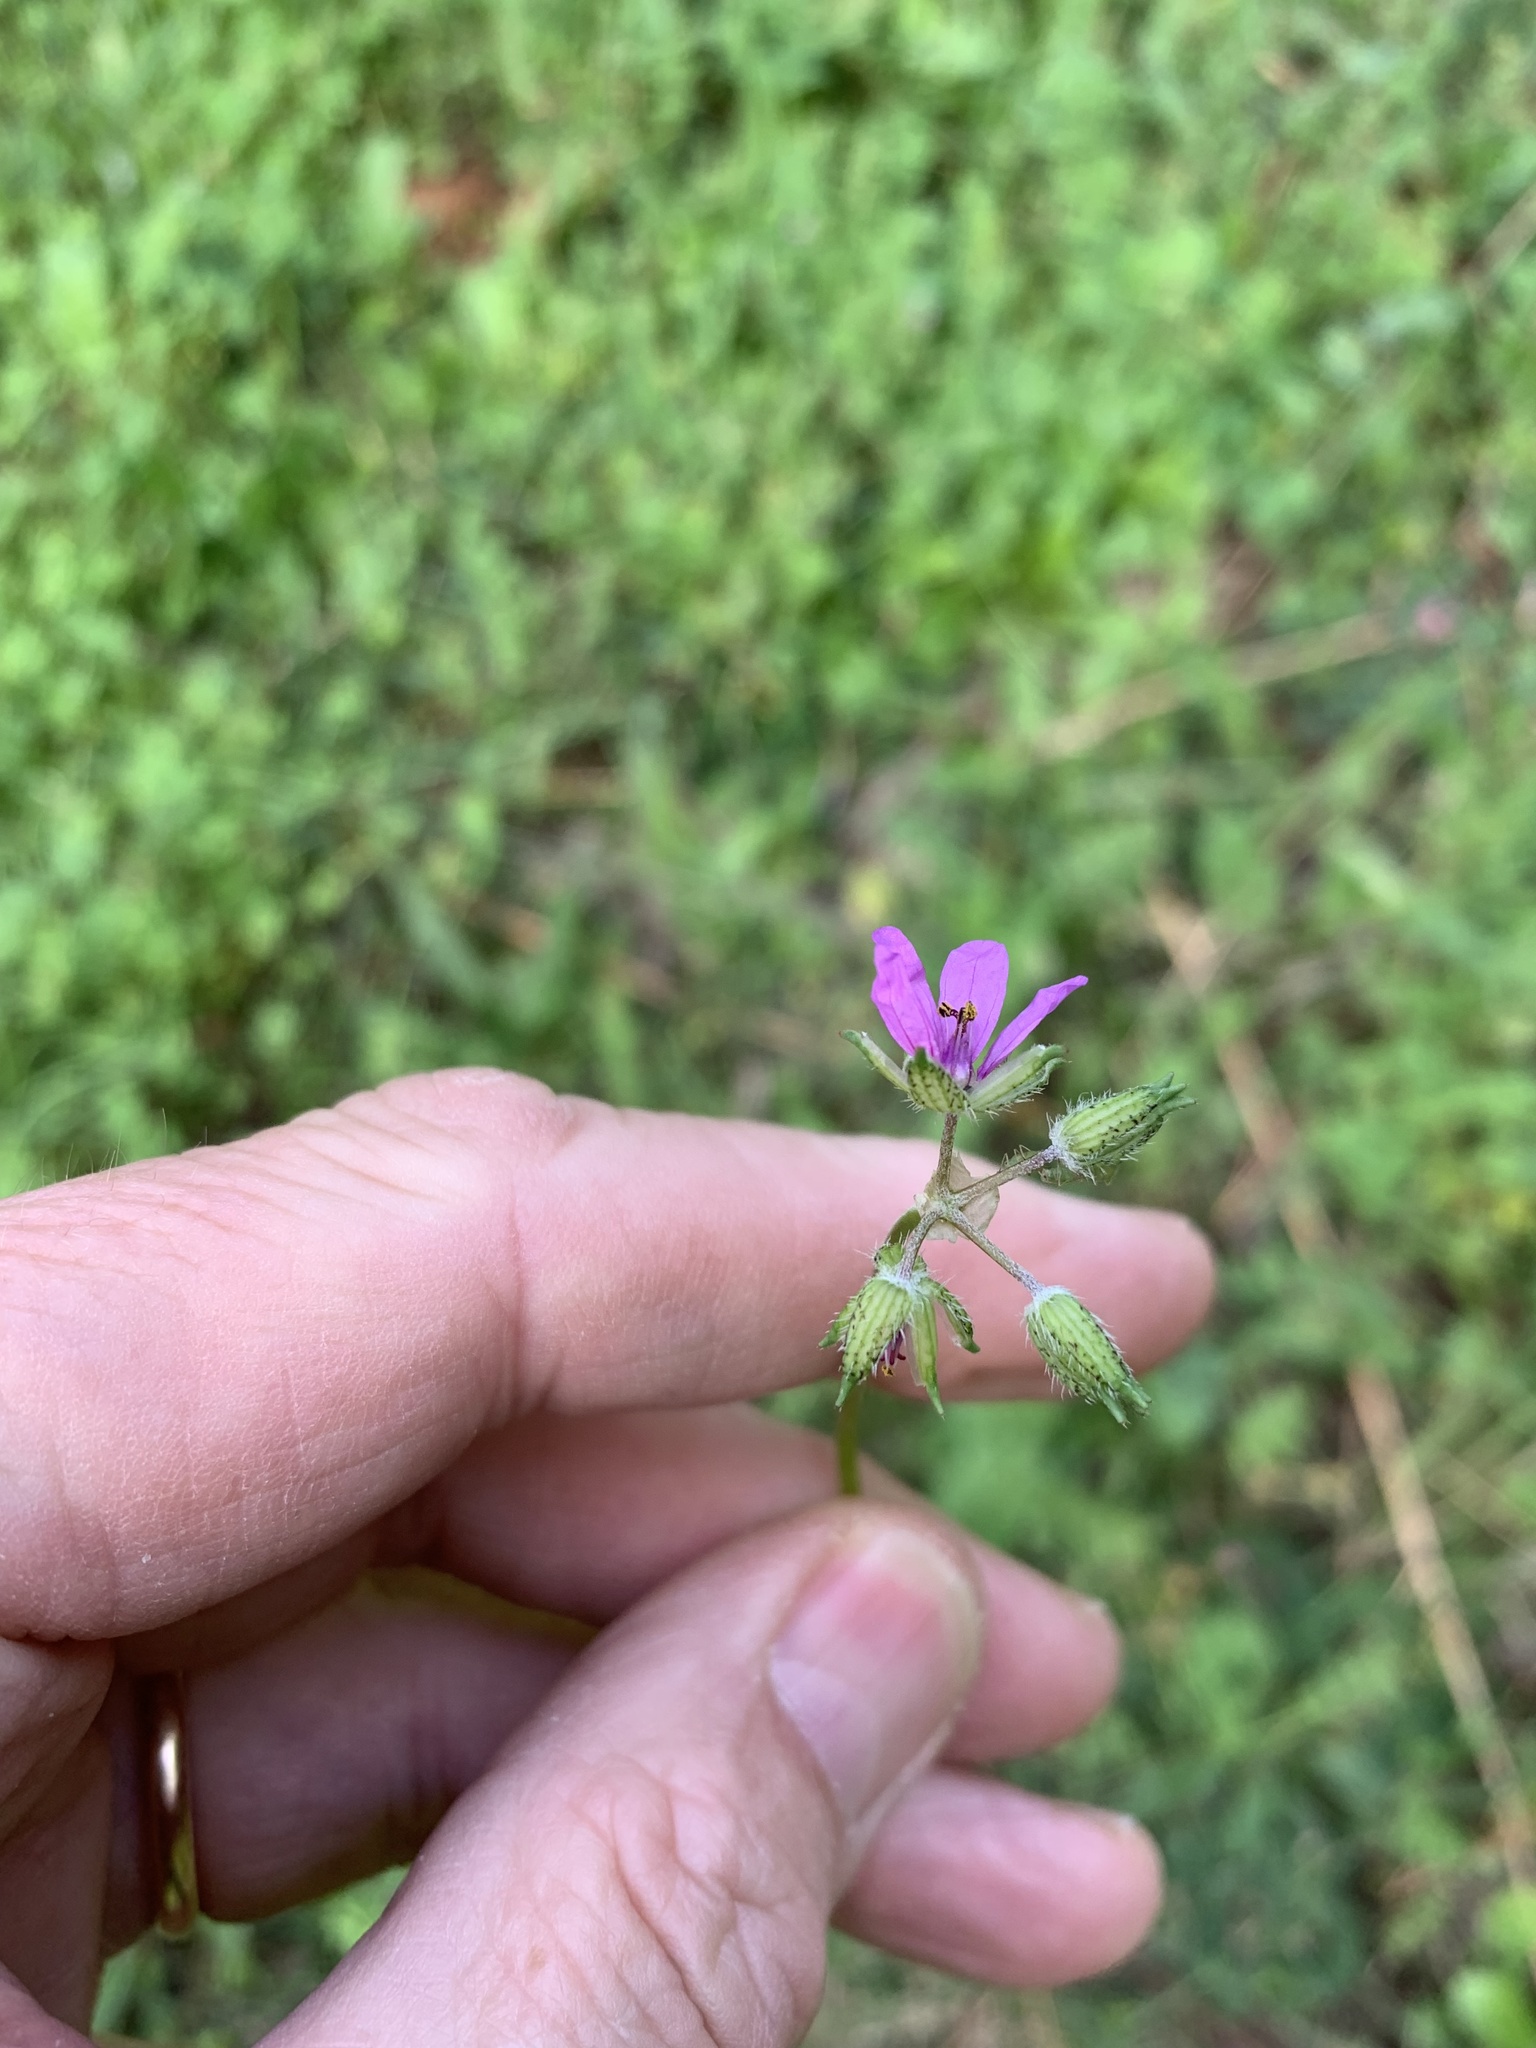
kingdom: Plantae
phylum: Tracheophyta
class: Magnoliopsida
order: Geraniales
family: Geraniaceae
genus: Erodium
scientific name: Erodium moschatum
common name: Musk stork's-bill
